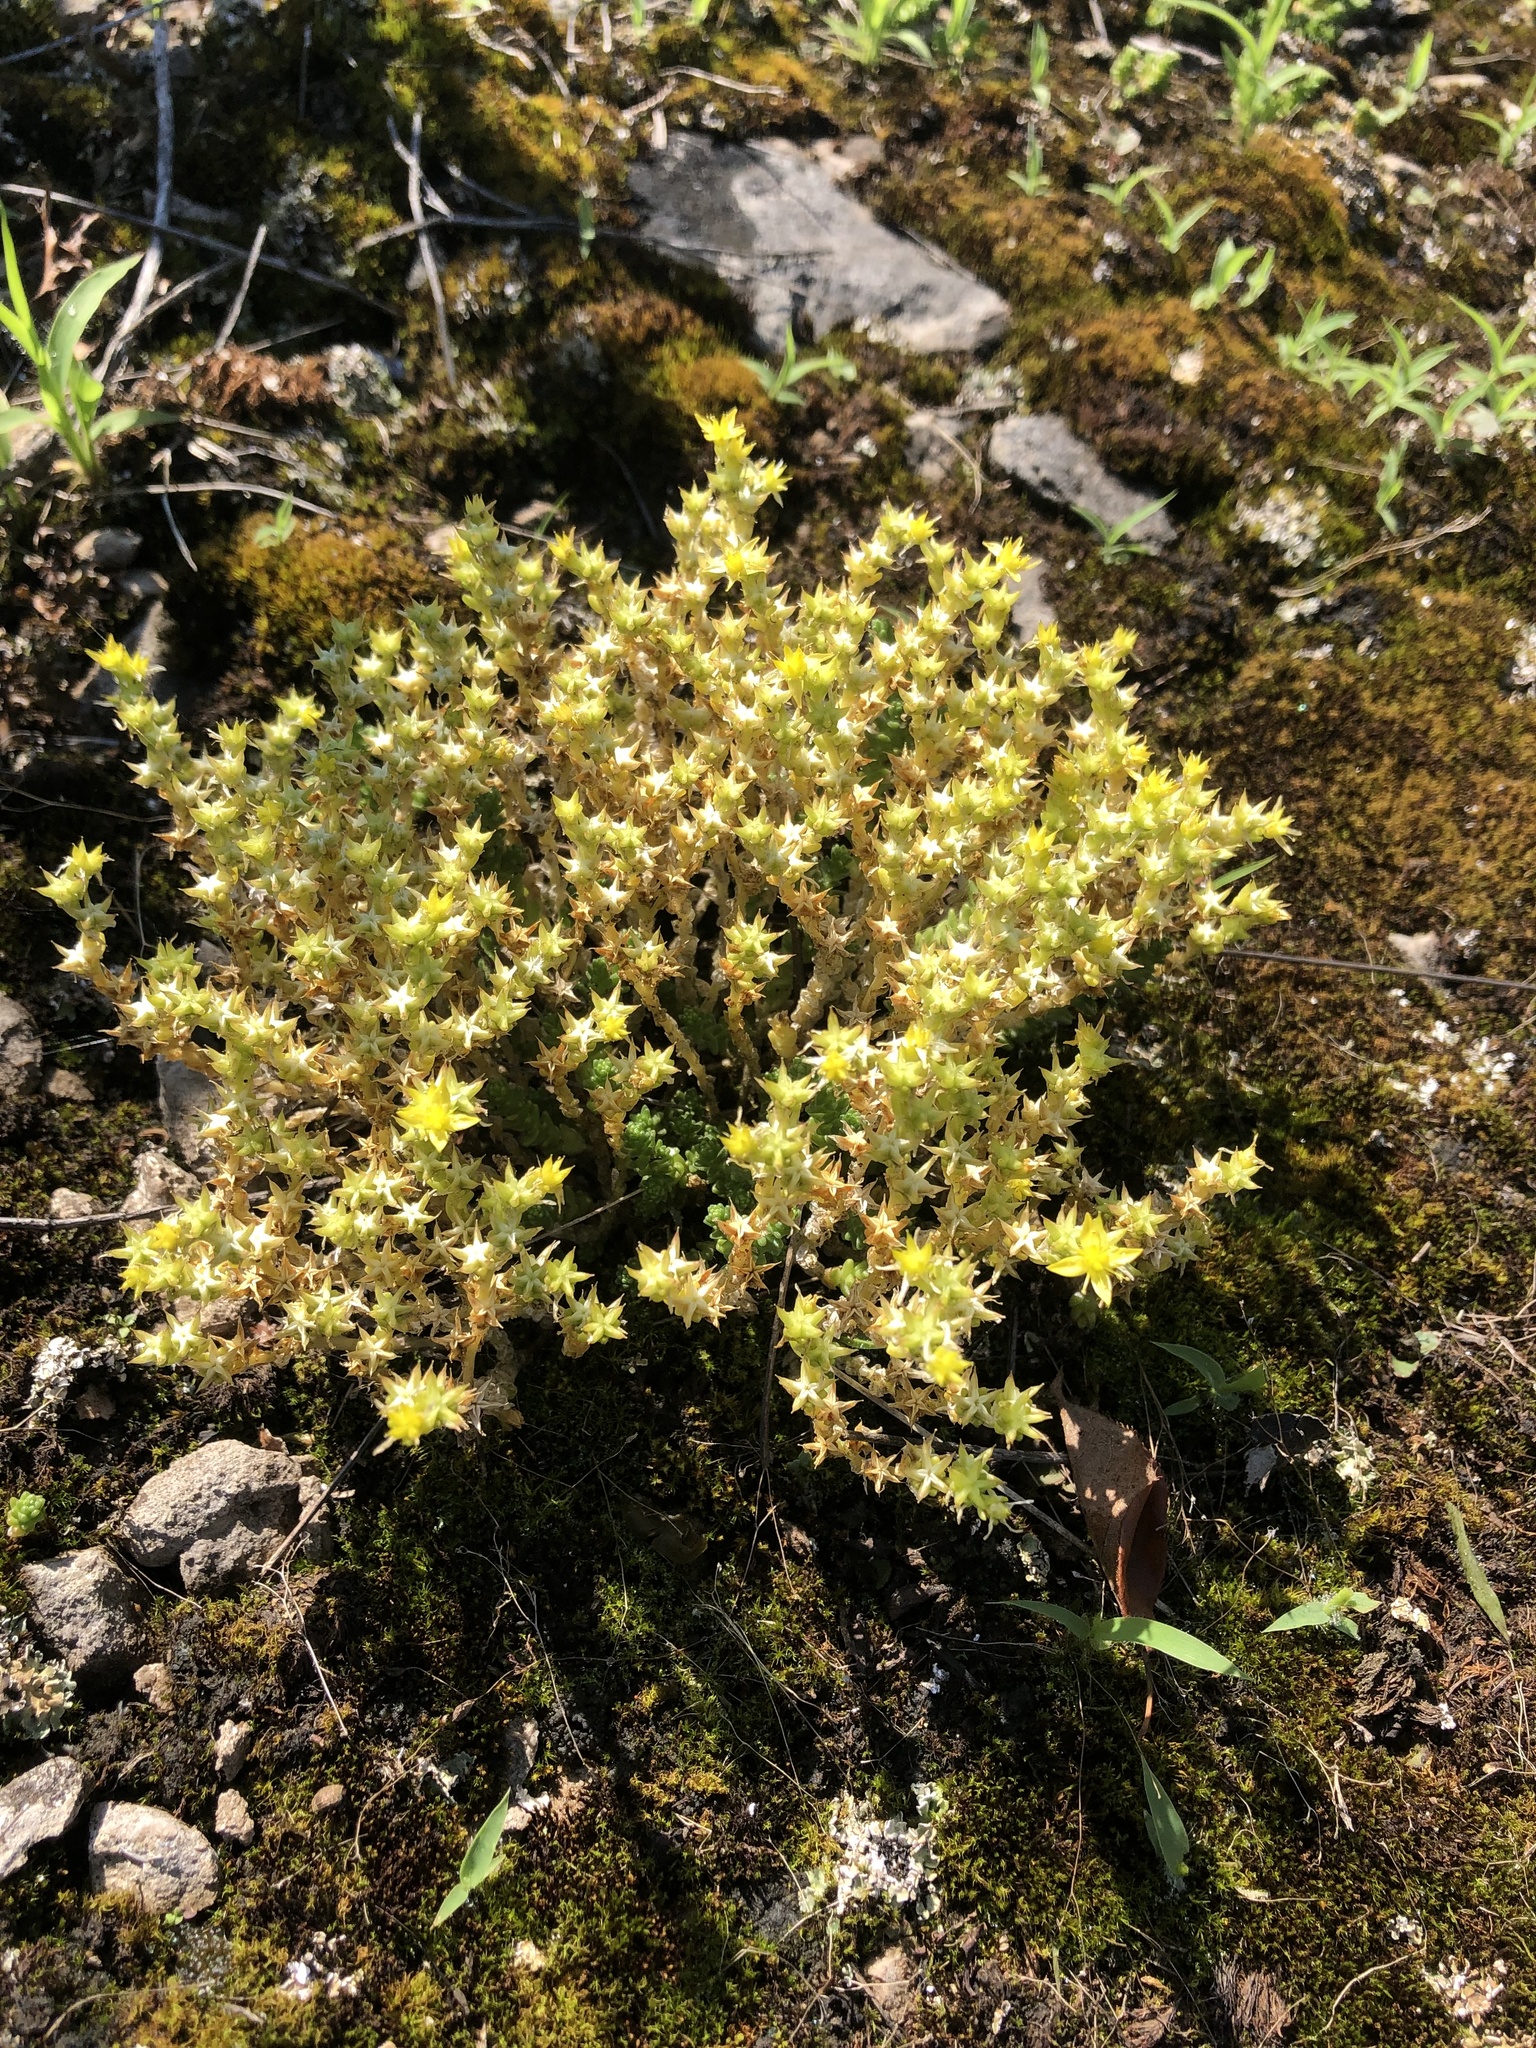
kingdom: Plantae
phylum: Tracheophyta
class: Magnoliopsida
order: Saxifragales
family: Crassulaceae
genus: Sedum
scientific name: Sedum acre
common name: Biting stonecrop
